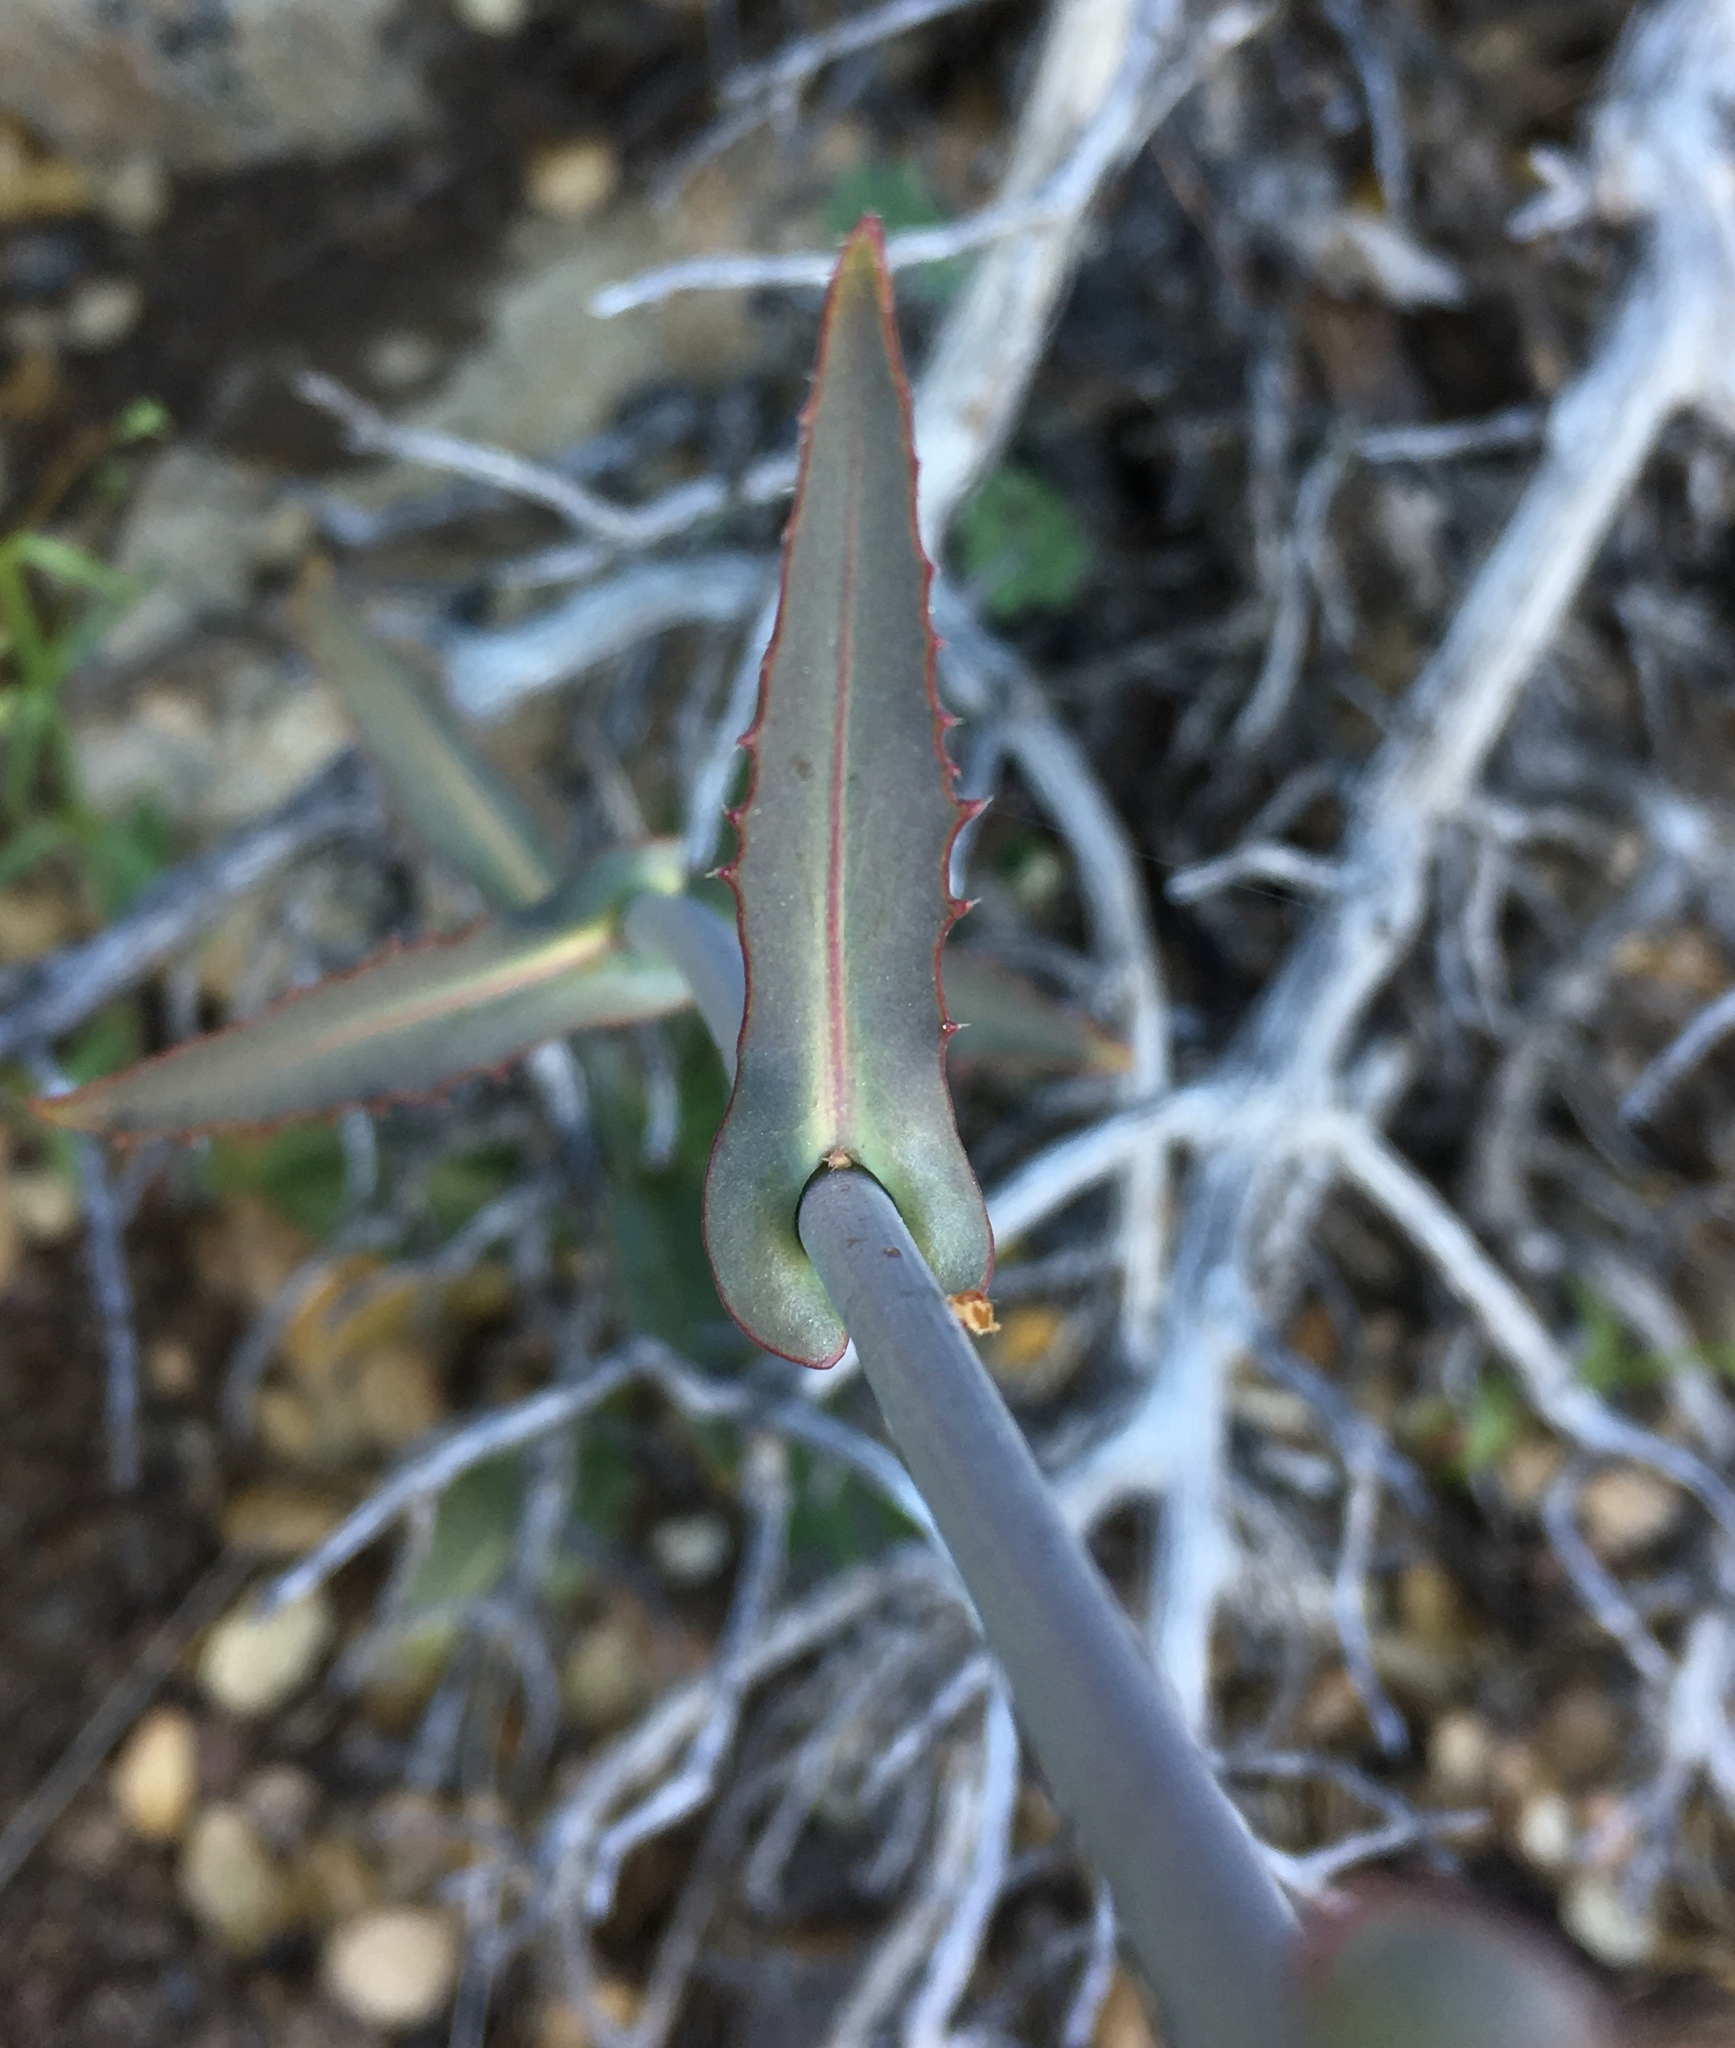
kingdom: Plantae
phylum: Tracheophyta
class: Magnoliopsida
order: Brassicales
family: Brassicaceae
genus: Streptanthus
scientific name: Streptanthus campestris
